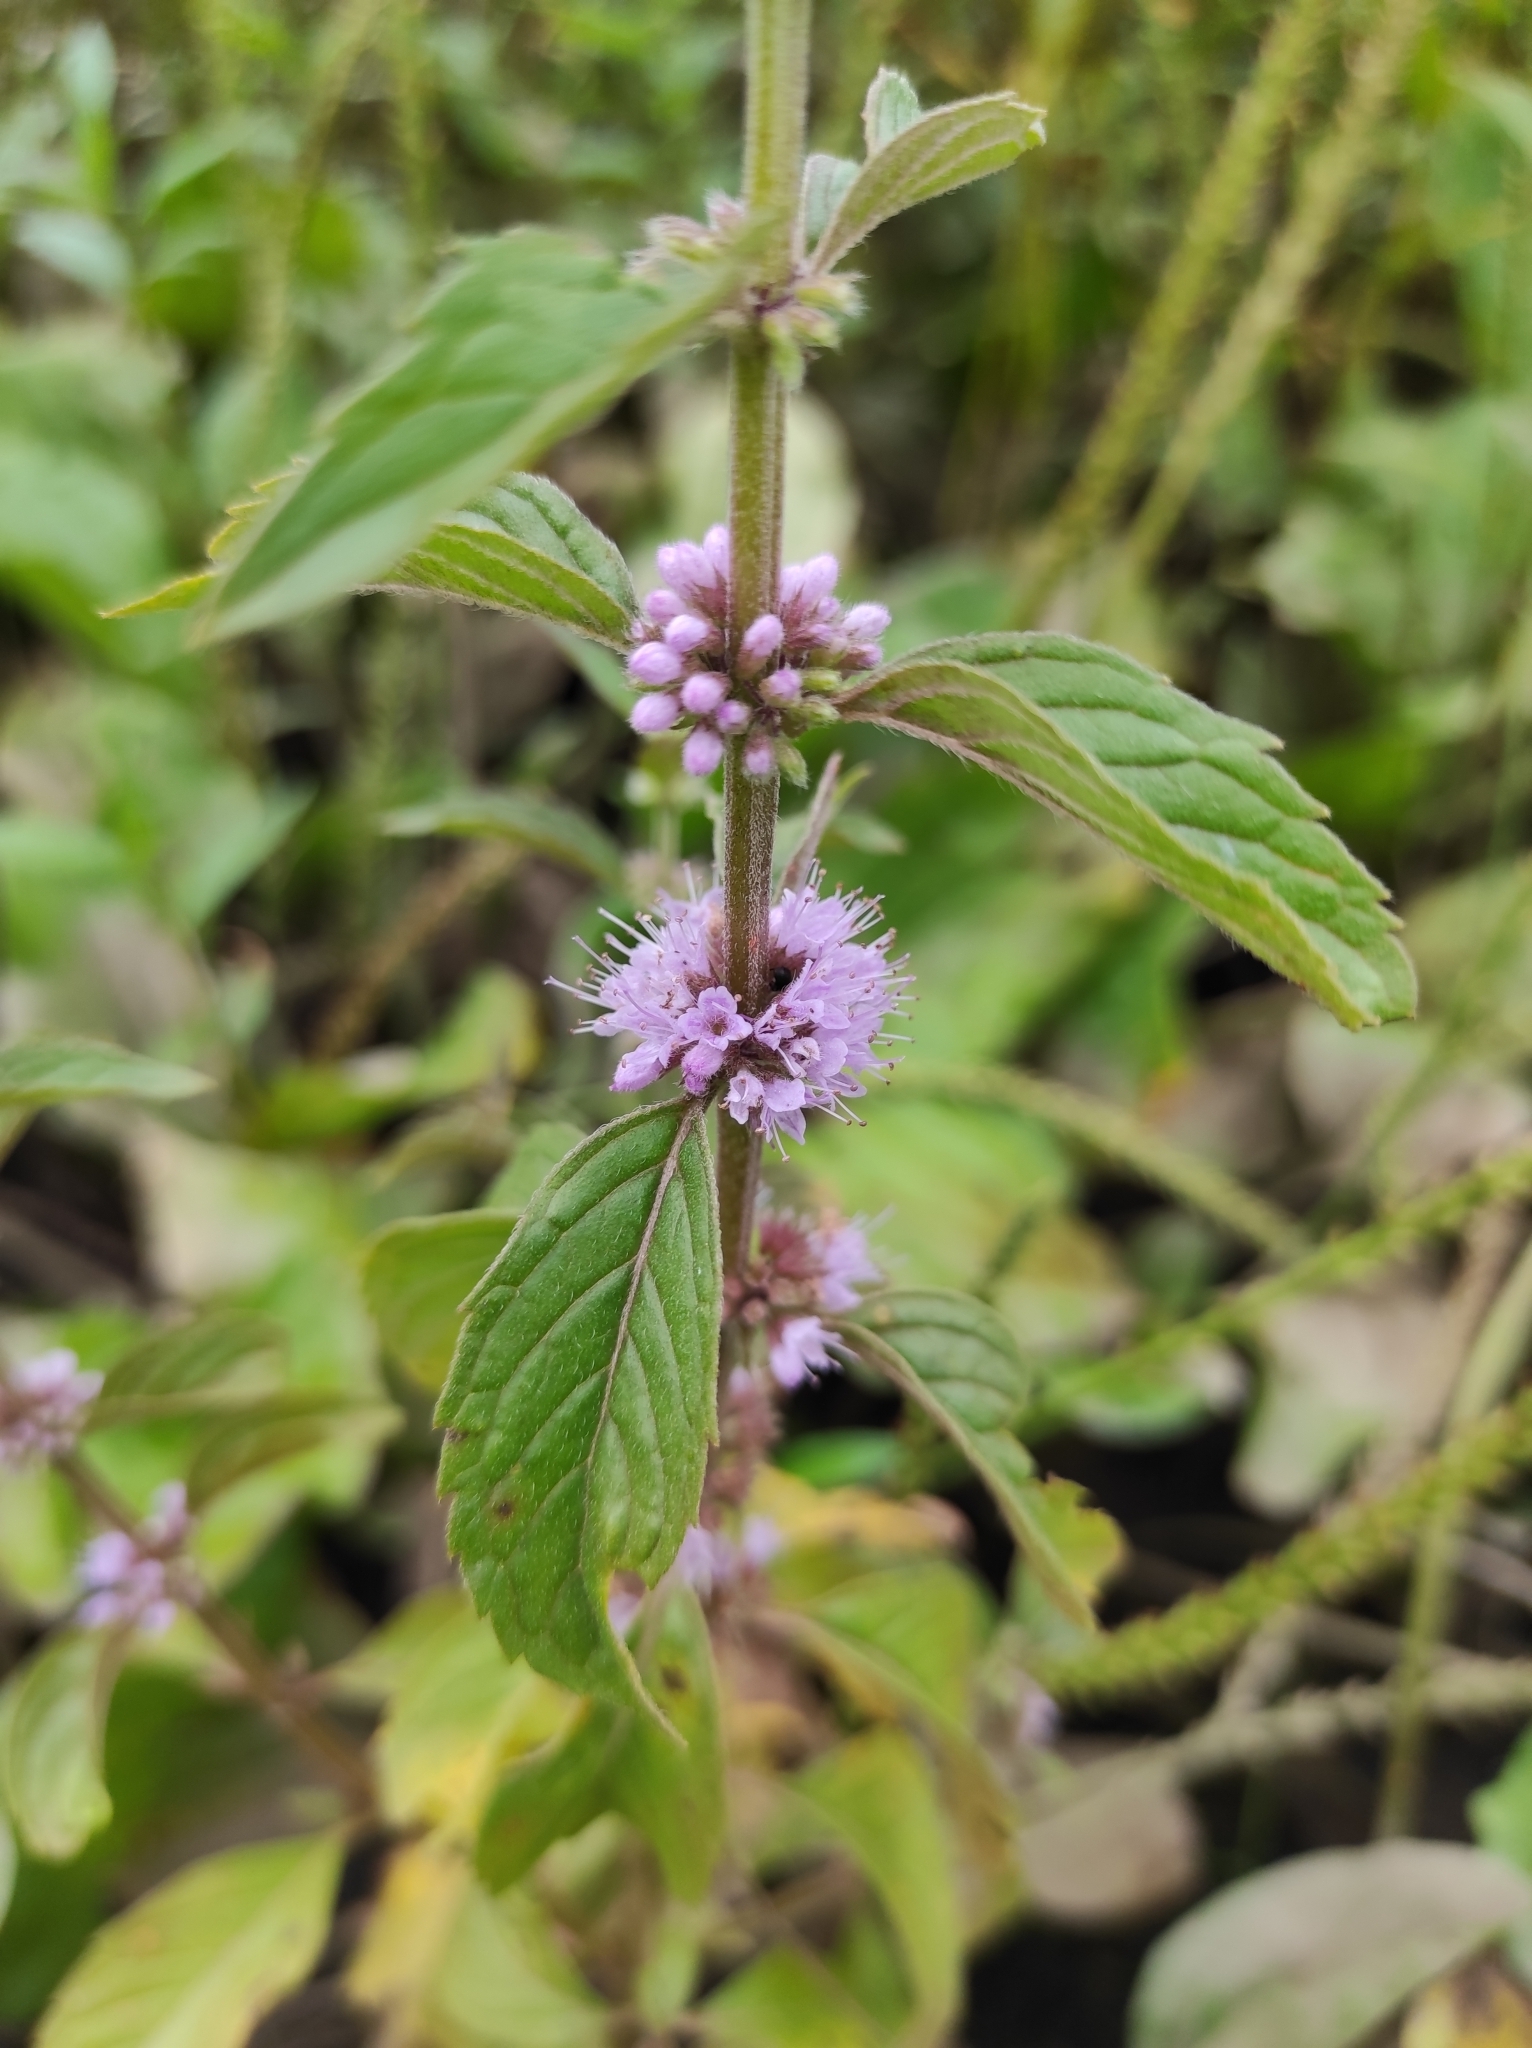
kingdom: Plantae
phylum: Tracheophyta
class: Magnoliopsida
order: Lamiales
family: Lamiaceae
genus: Mentha
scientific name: Mentha canadensis
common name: American corn mint
